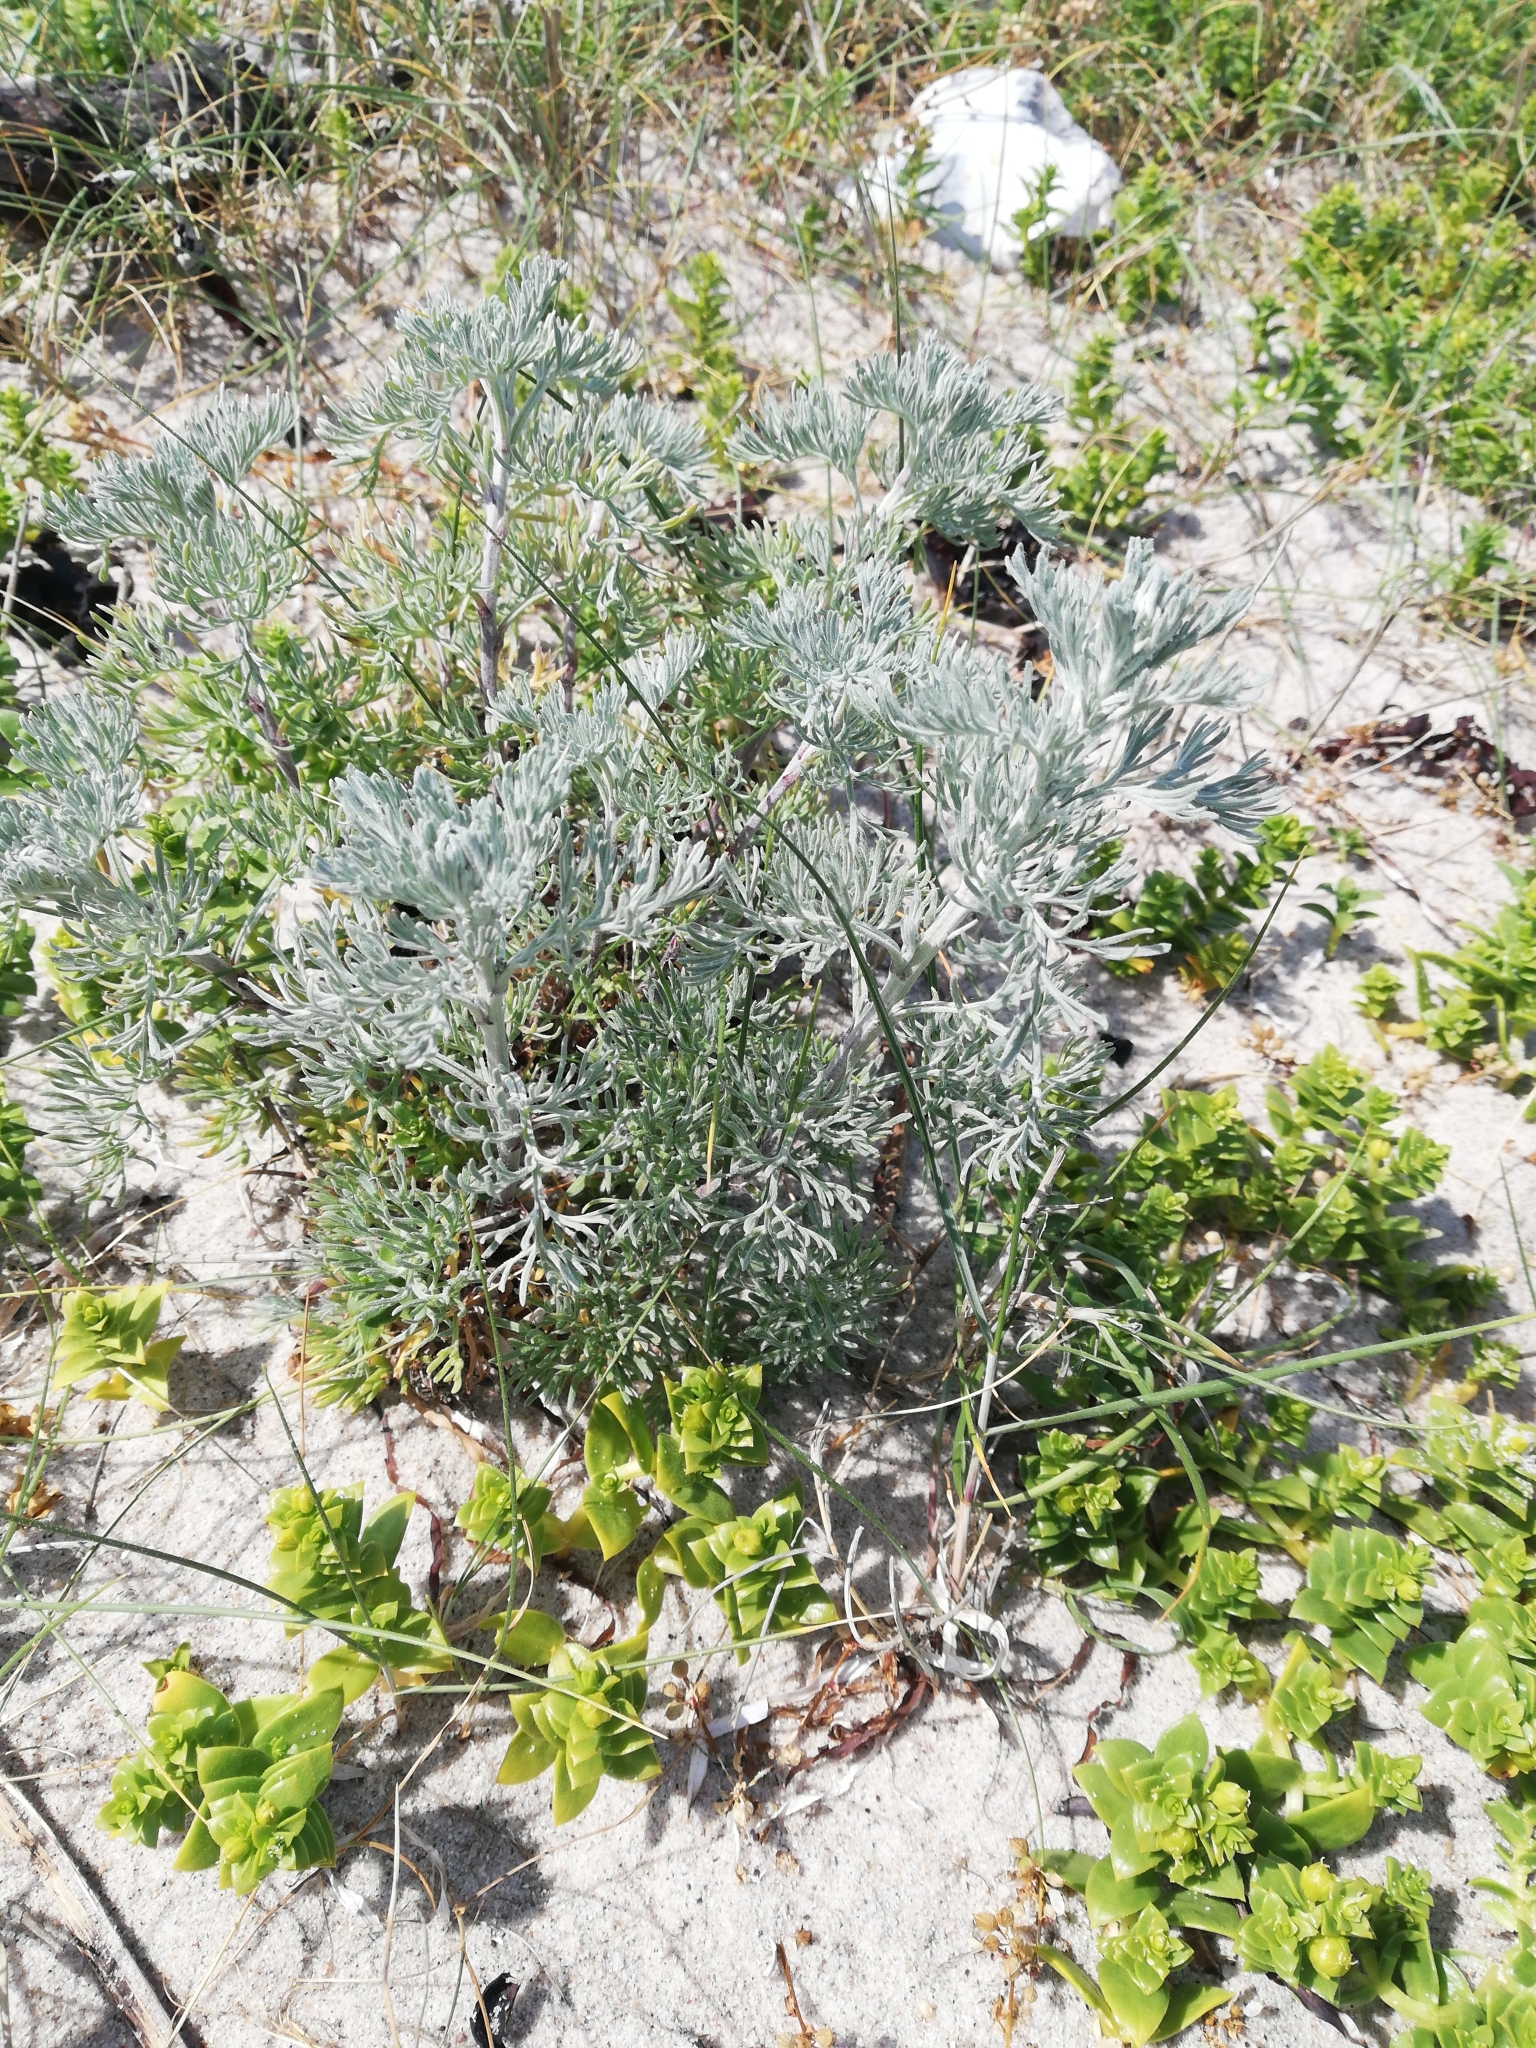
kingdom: Plantae
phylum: Tracheophyta
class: Magnoliopsida
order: Asterales
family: Asteraceae
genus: Artemisia
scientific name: Artemisia maritima
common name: Wormseed
